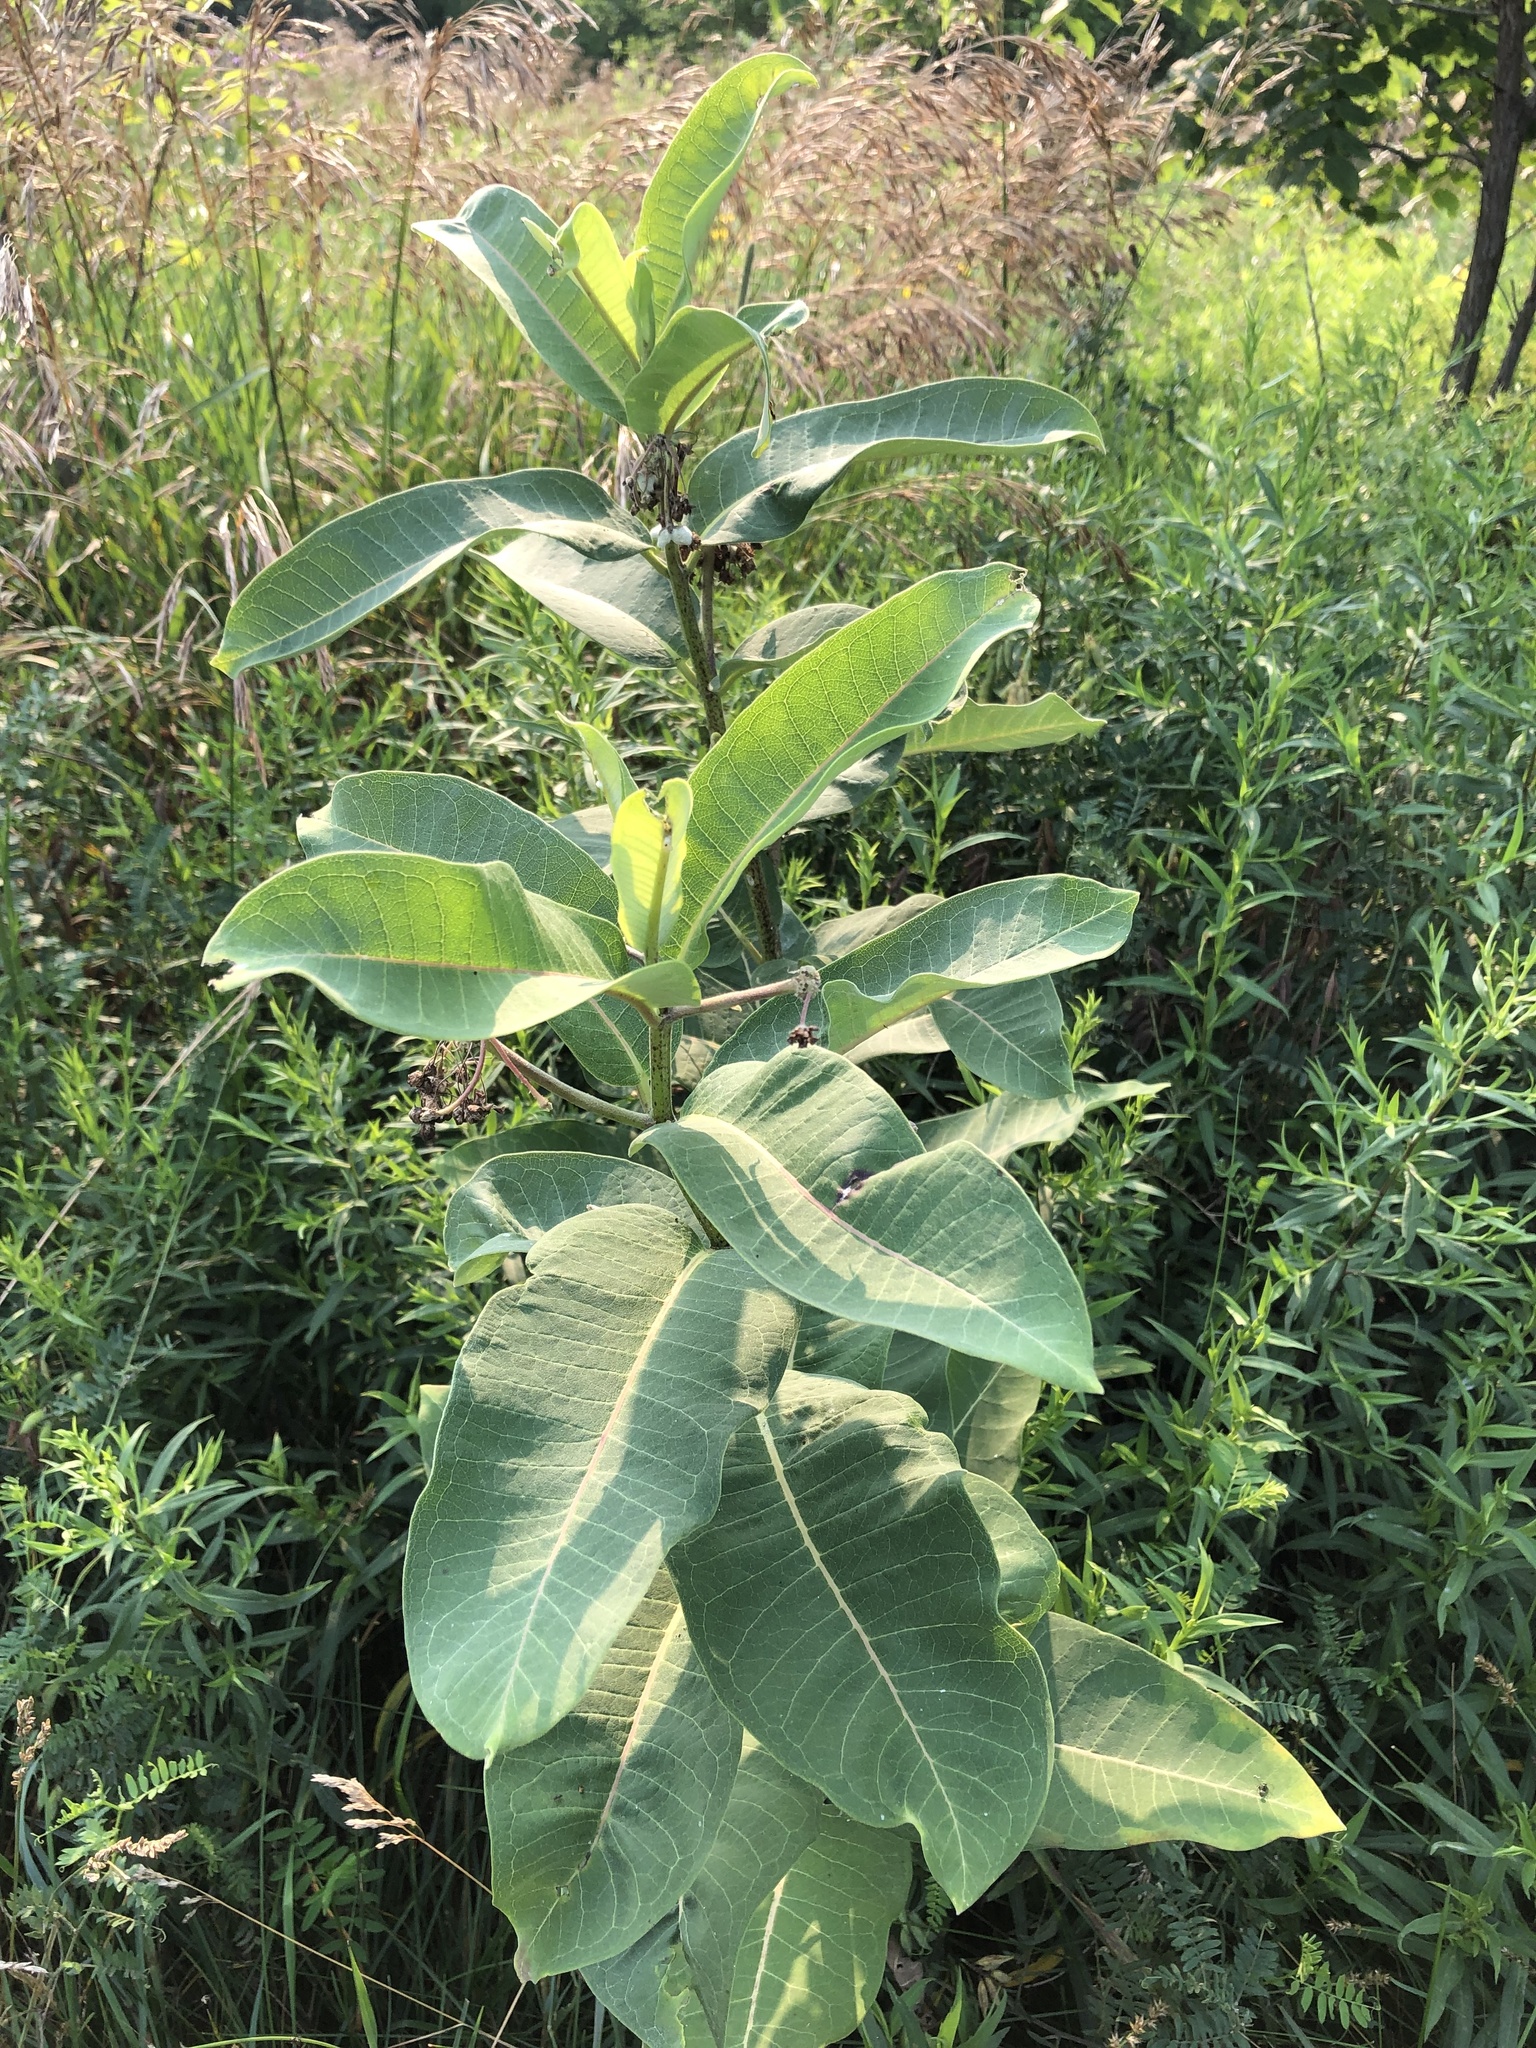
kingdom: Plantae
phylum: Tracheophyta
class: Magnoliopsida
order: Gentianales
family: Apocynaceae
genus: Asclepias
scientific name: Asclepias syriaca
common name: Common milkweed
